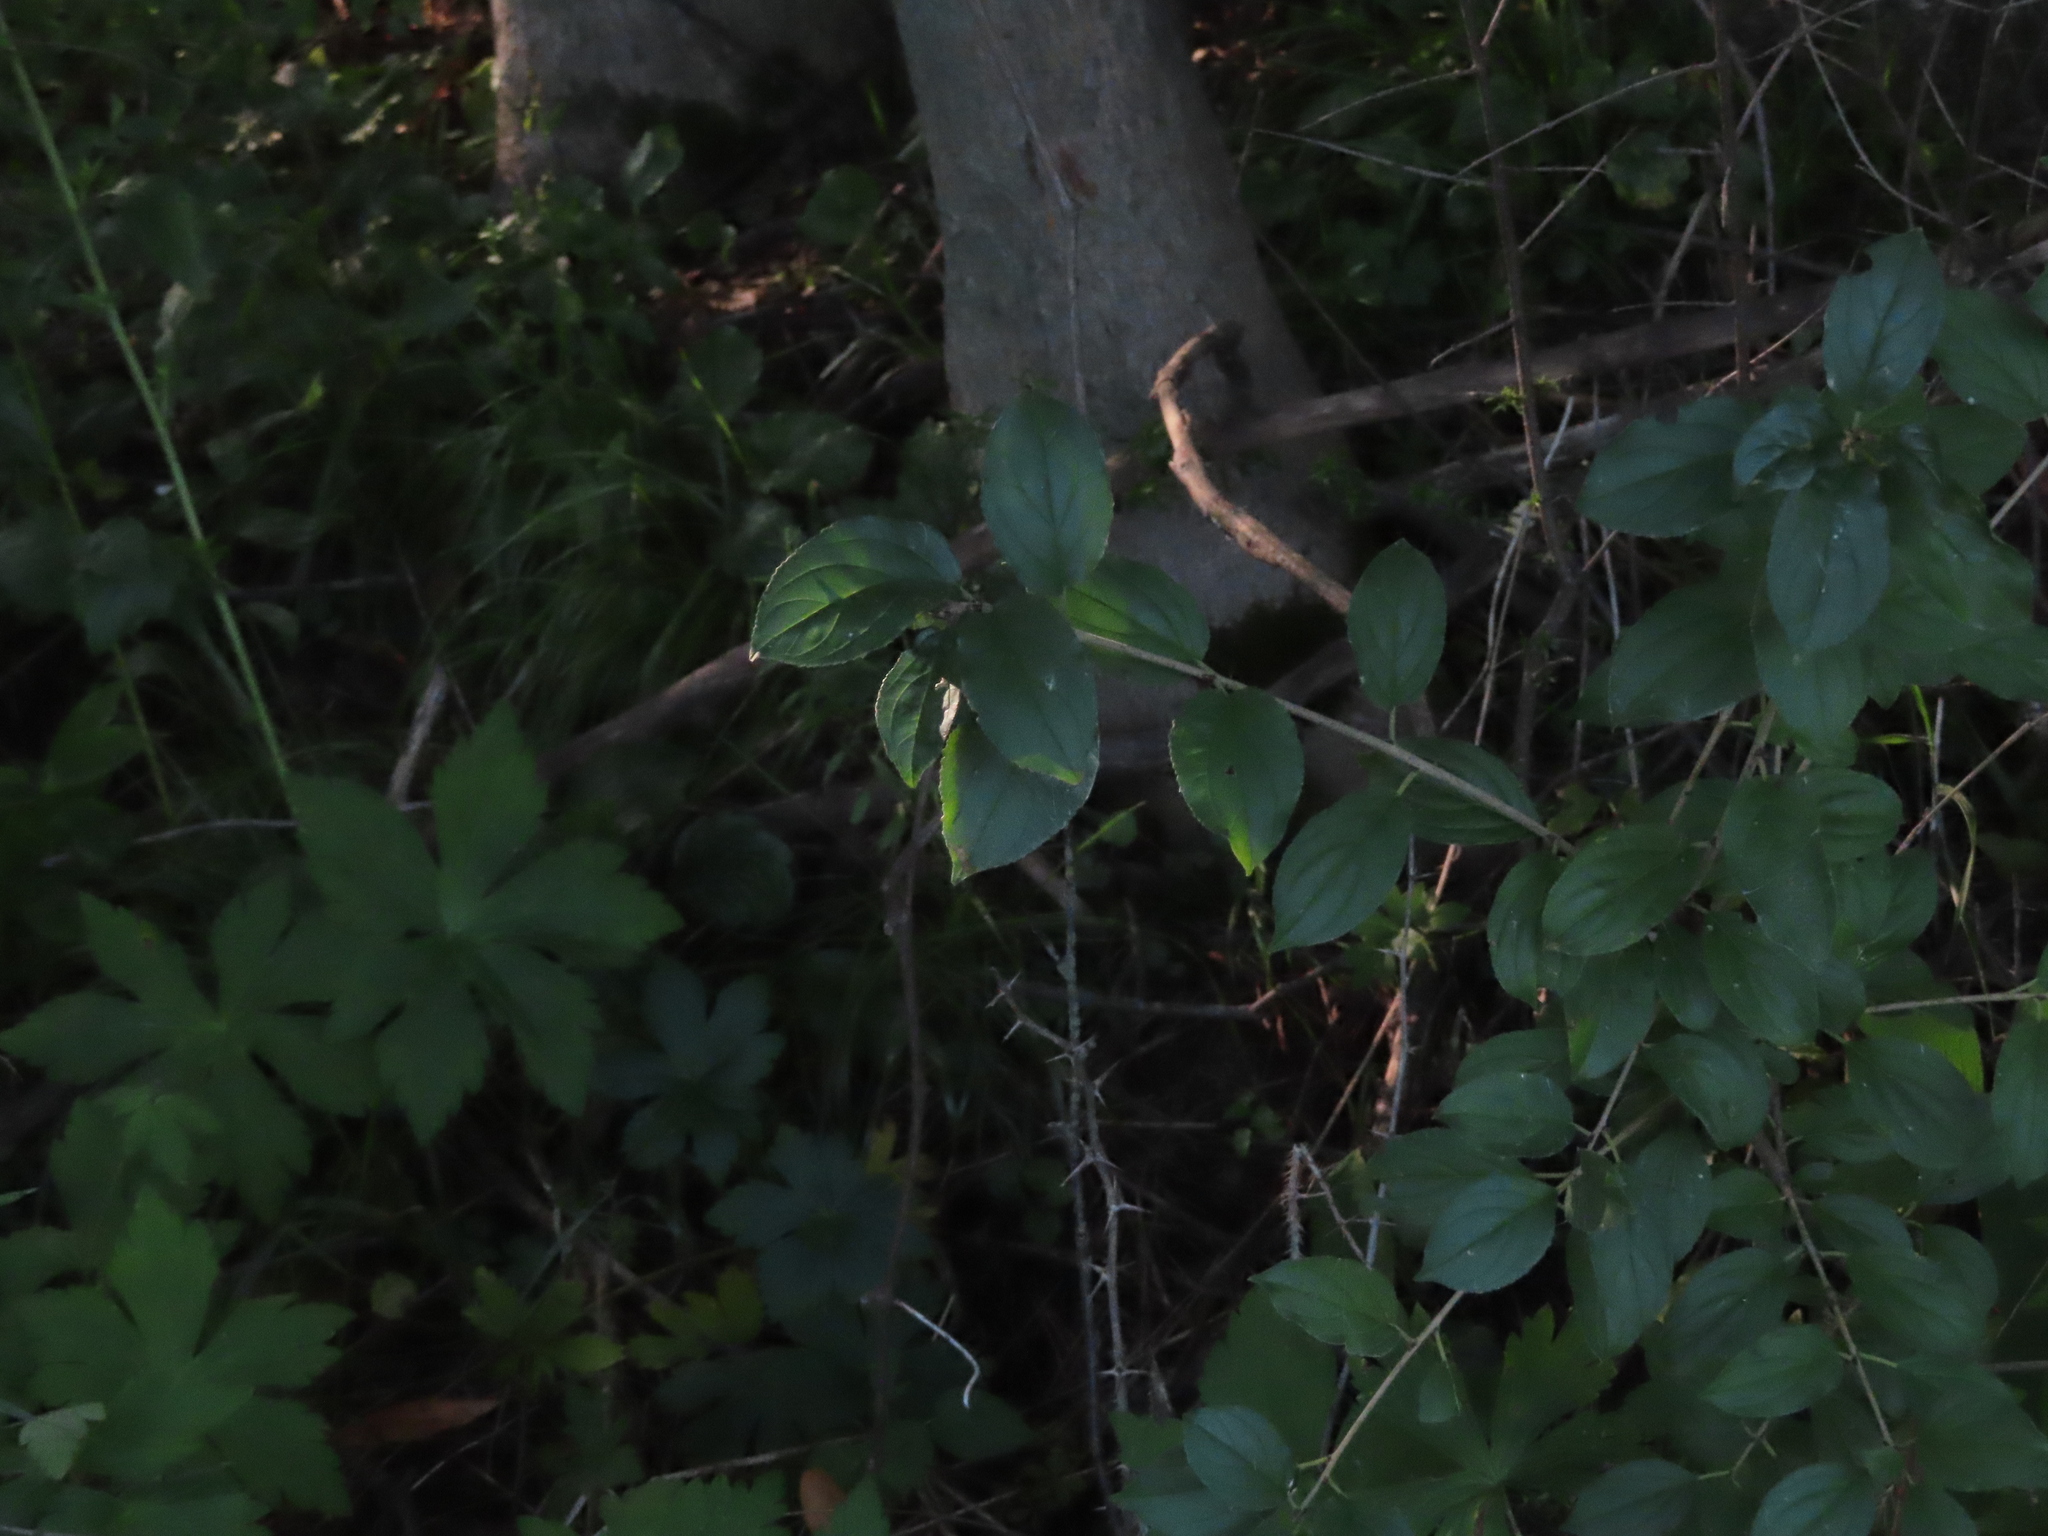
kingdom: Plantae
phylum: Tracheophyta
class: Magnoliopsida
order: Rosales
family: Rhamnaceae
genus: Rhamnus
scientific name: Rhamnus cathartica
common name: Common buckthorn
